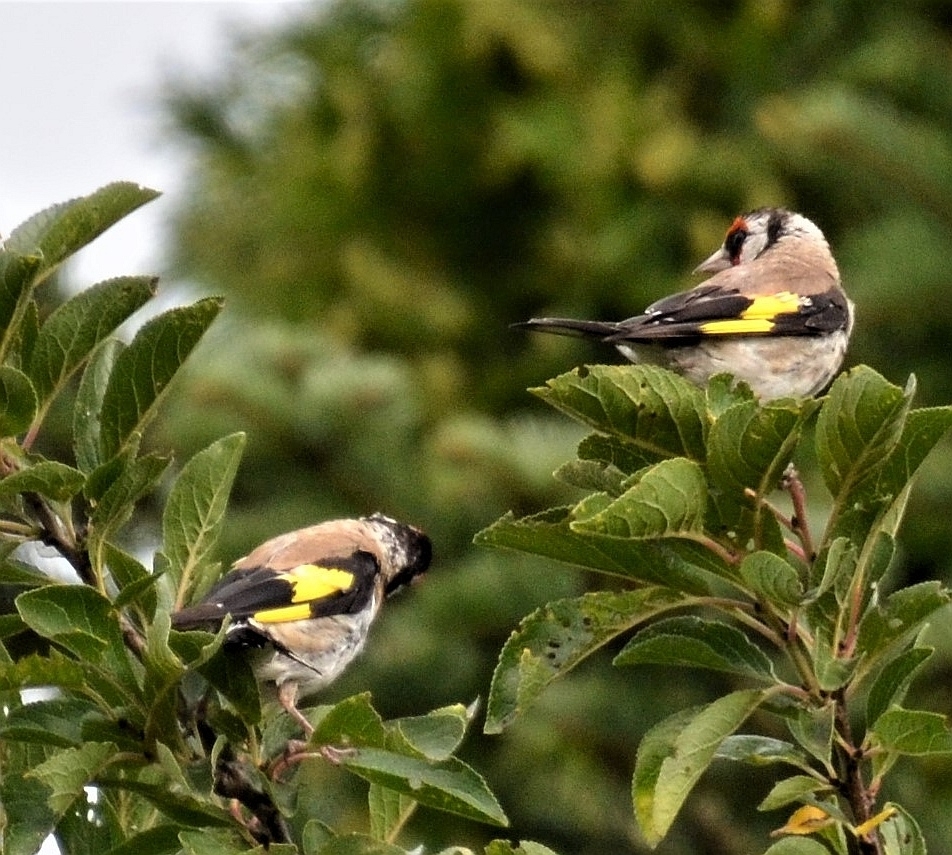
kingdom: Animalia
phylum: Chordata
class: Aves
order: Passeriformes
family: Fringillidae
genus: Carduelis
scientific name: Carduelis carduelis
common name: European goldfinch
